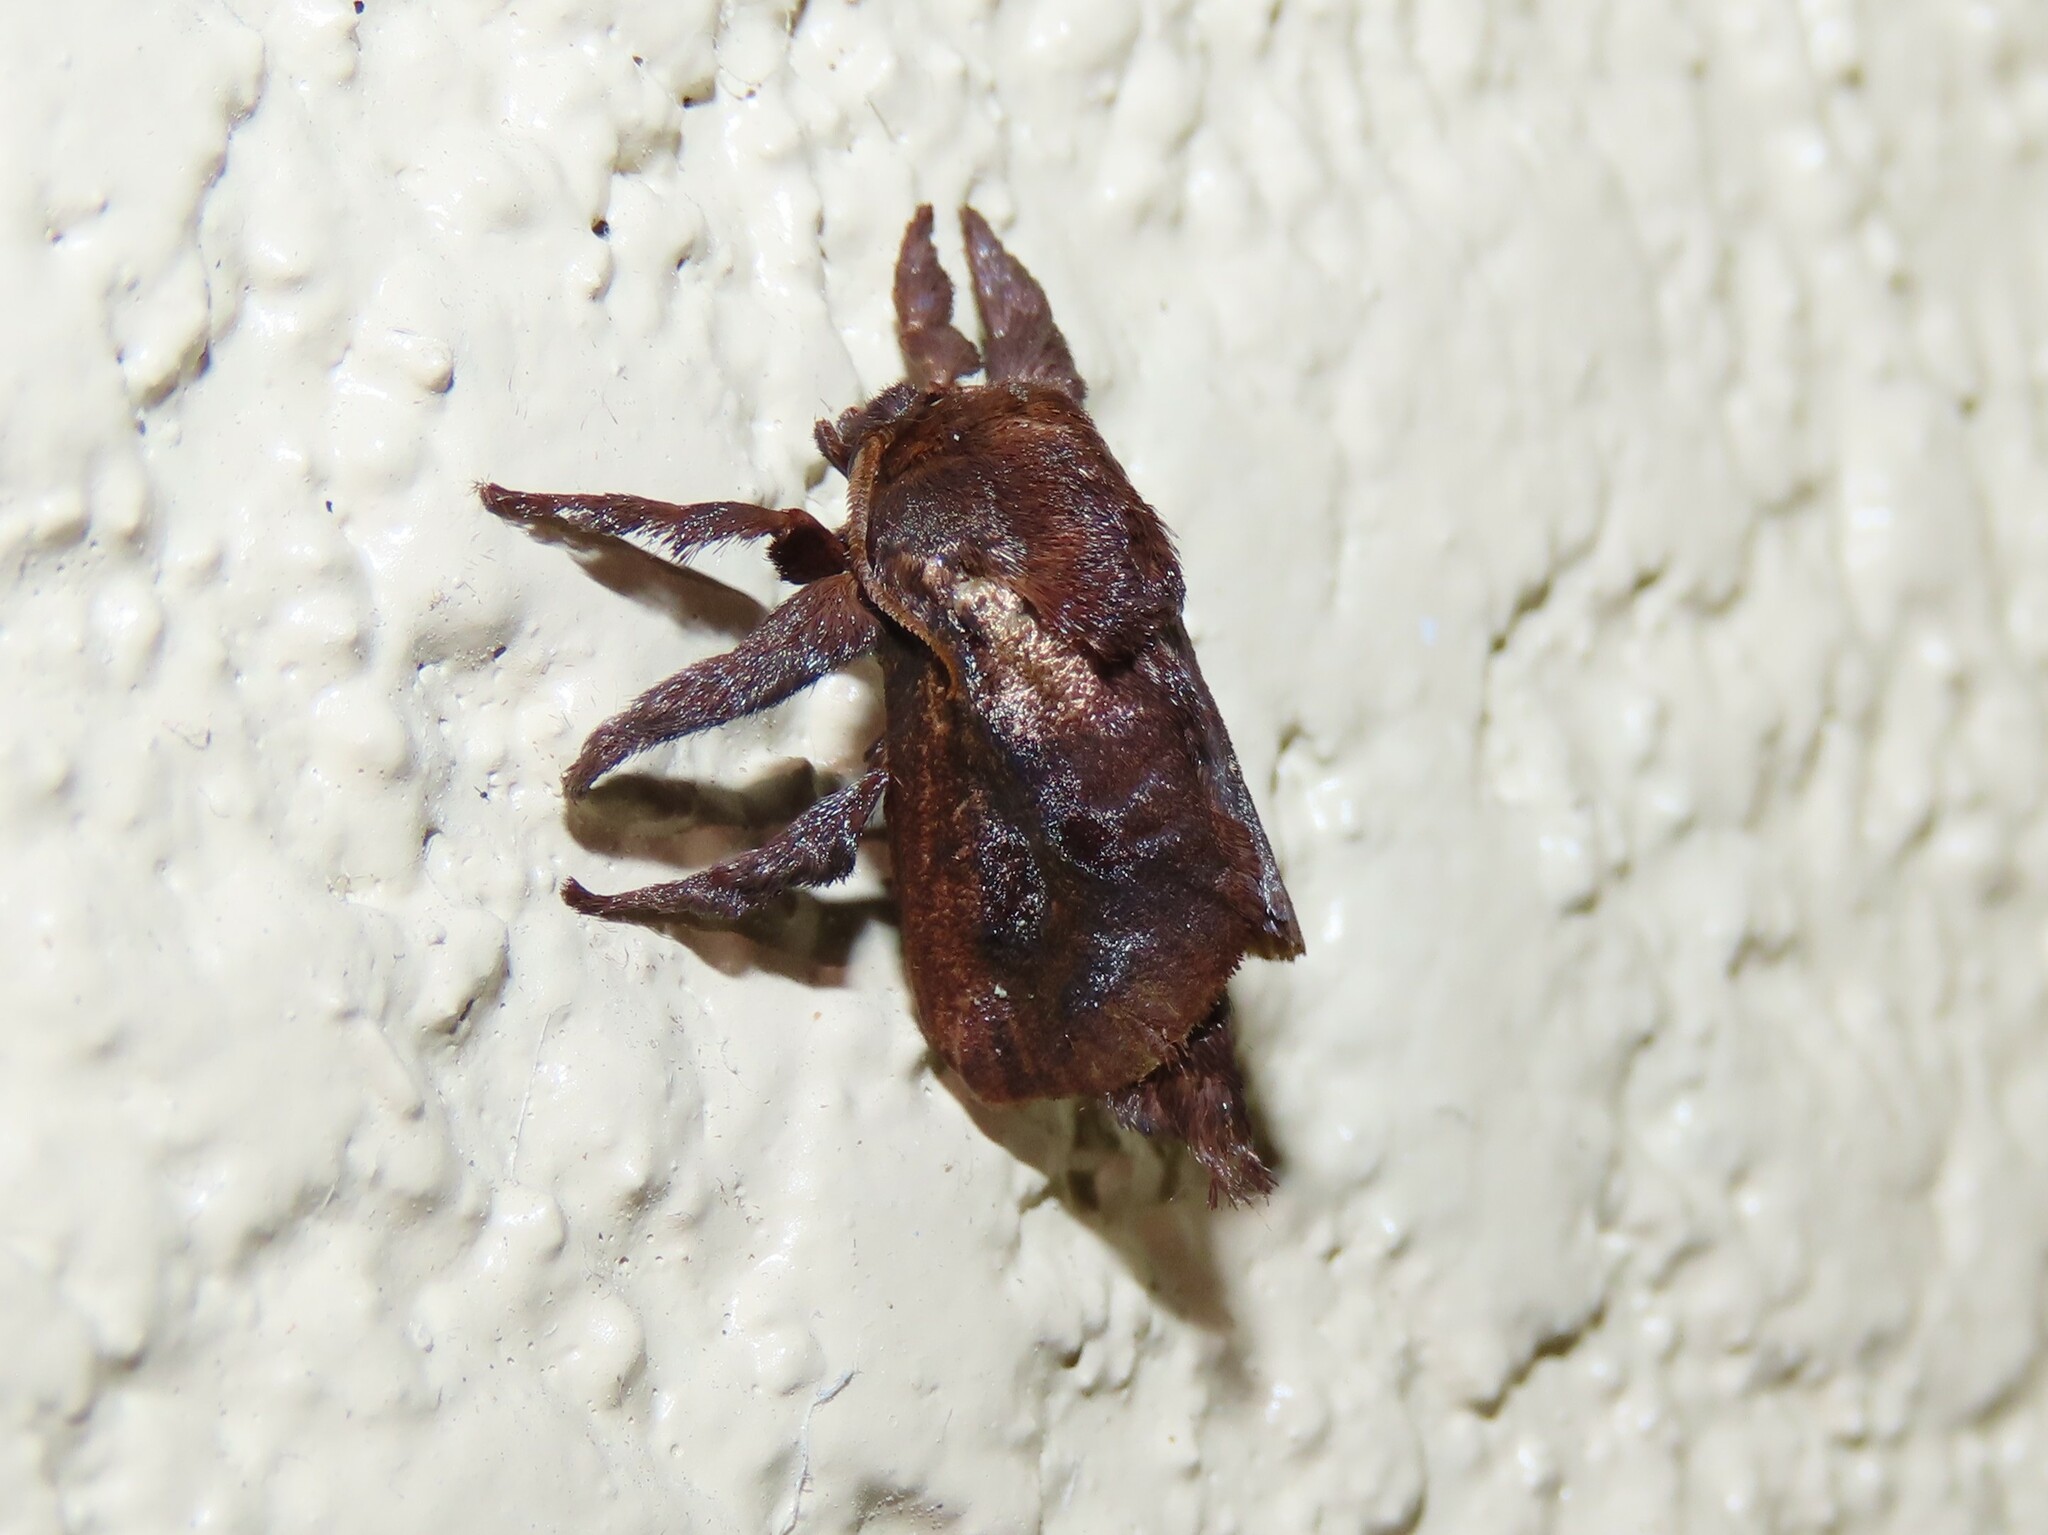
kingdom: Animalia
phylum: Arthropoda
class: Insecta
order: Lepidoptera
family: Limacodidae
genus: Acharia
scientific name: Acharia stimulea
